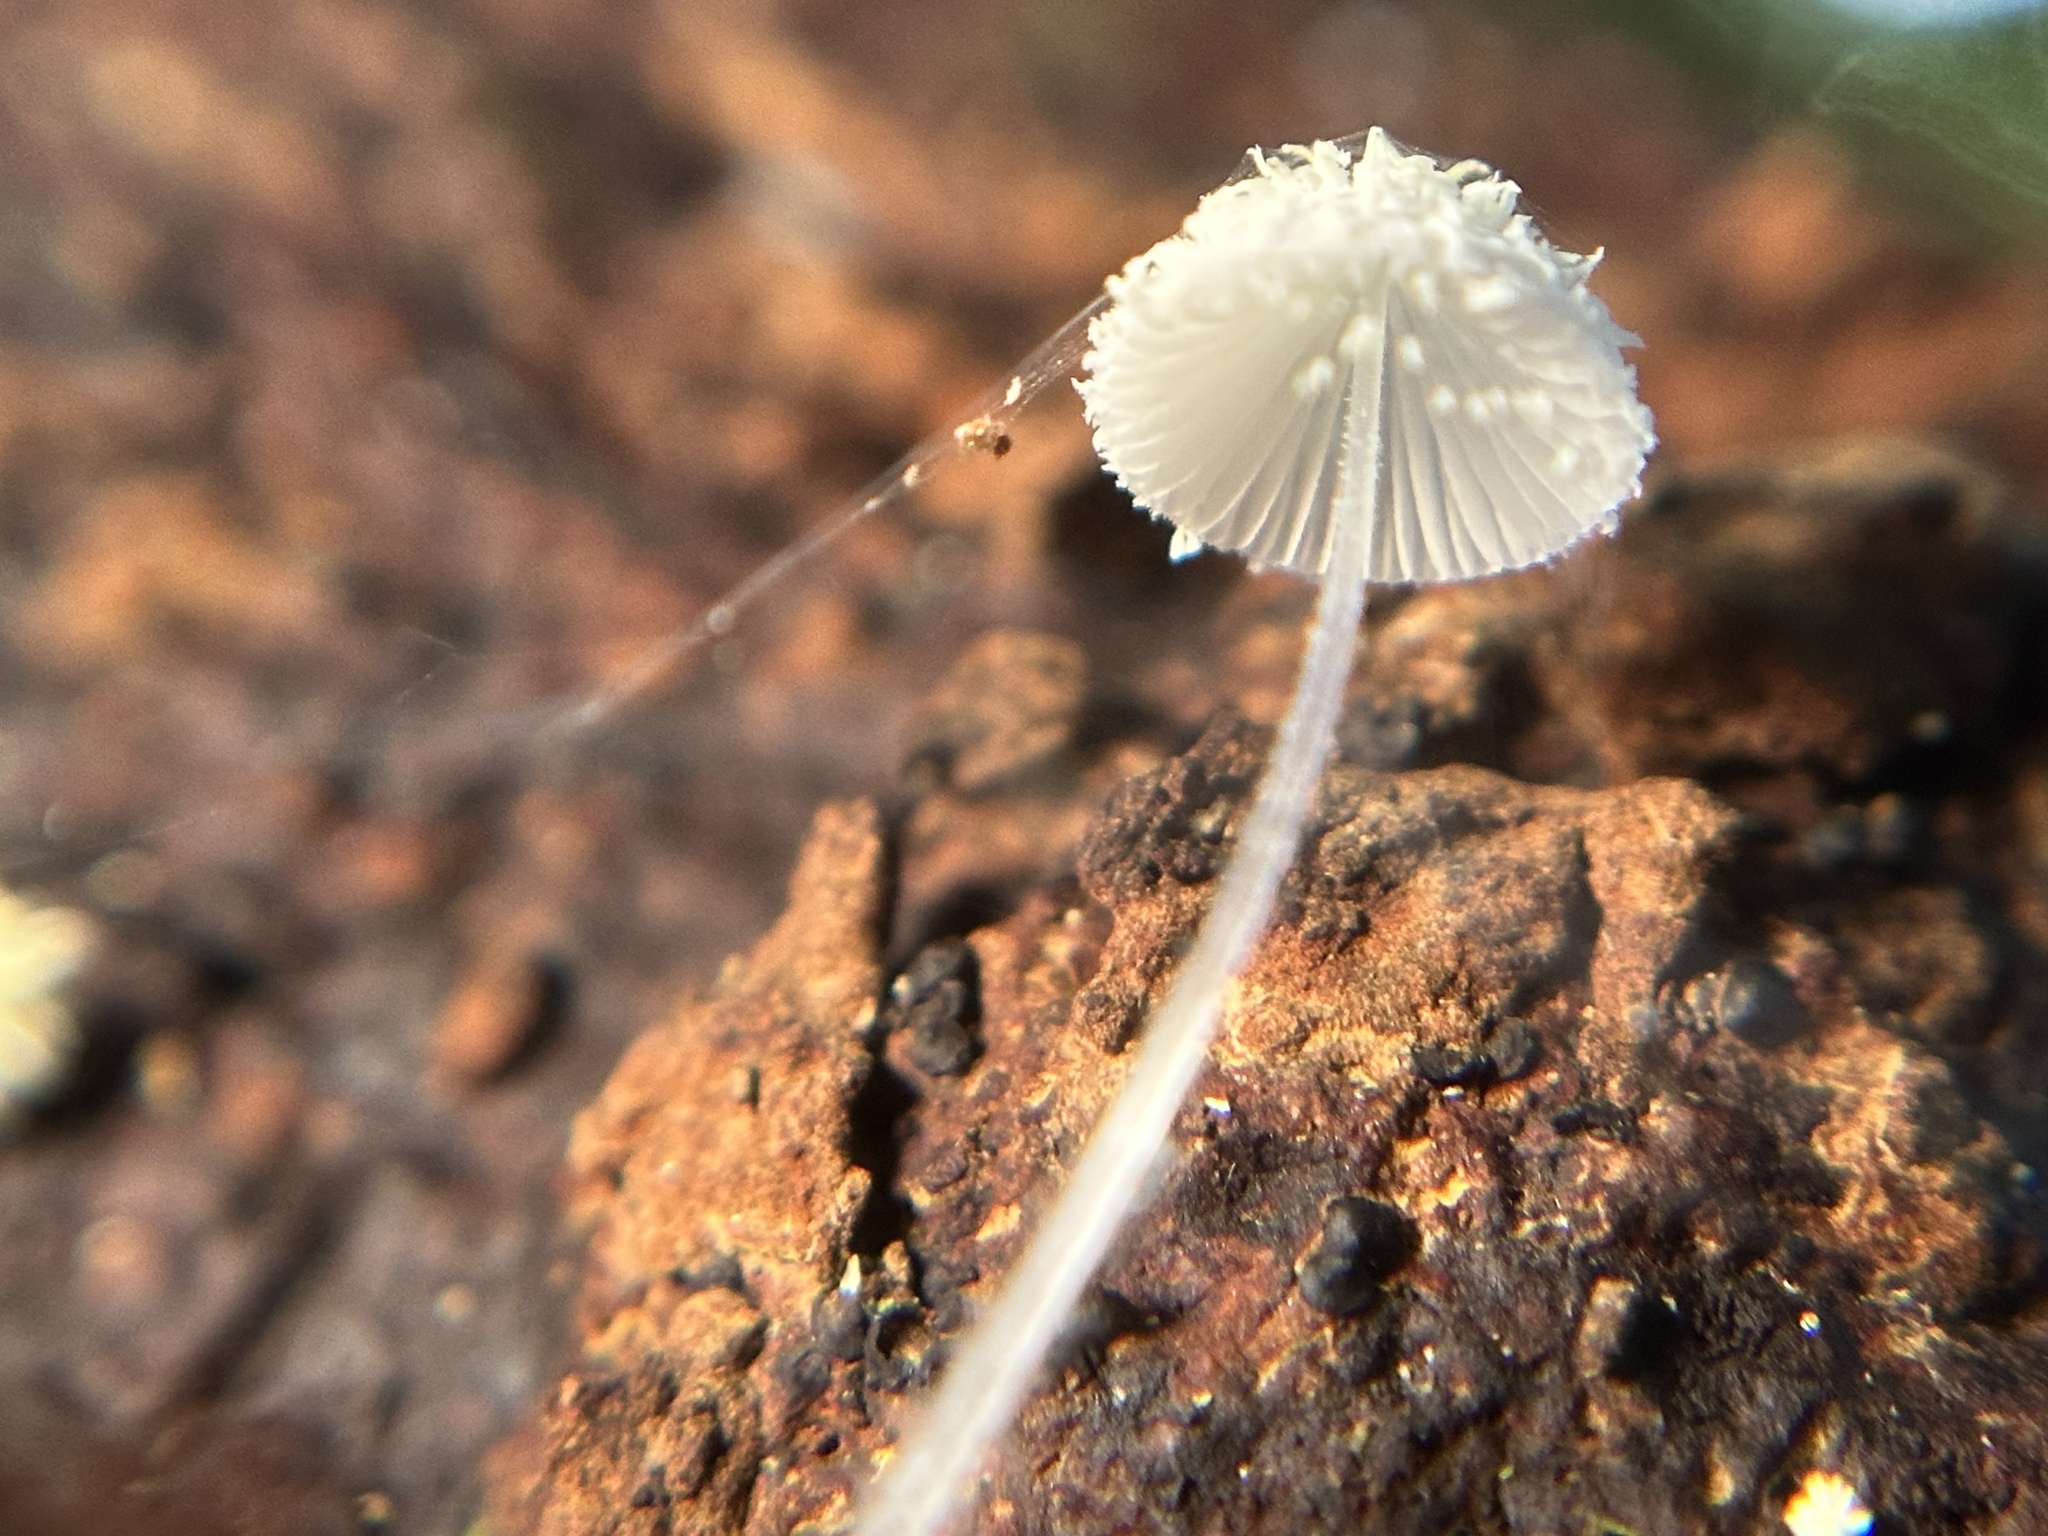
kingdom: Fungi
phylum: Basidiomycota
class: Agaricomycetes
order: Agaricales
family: Mycenaceae
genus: Mycena
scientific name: Mycena spinosissima
